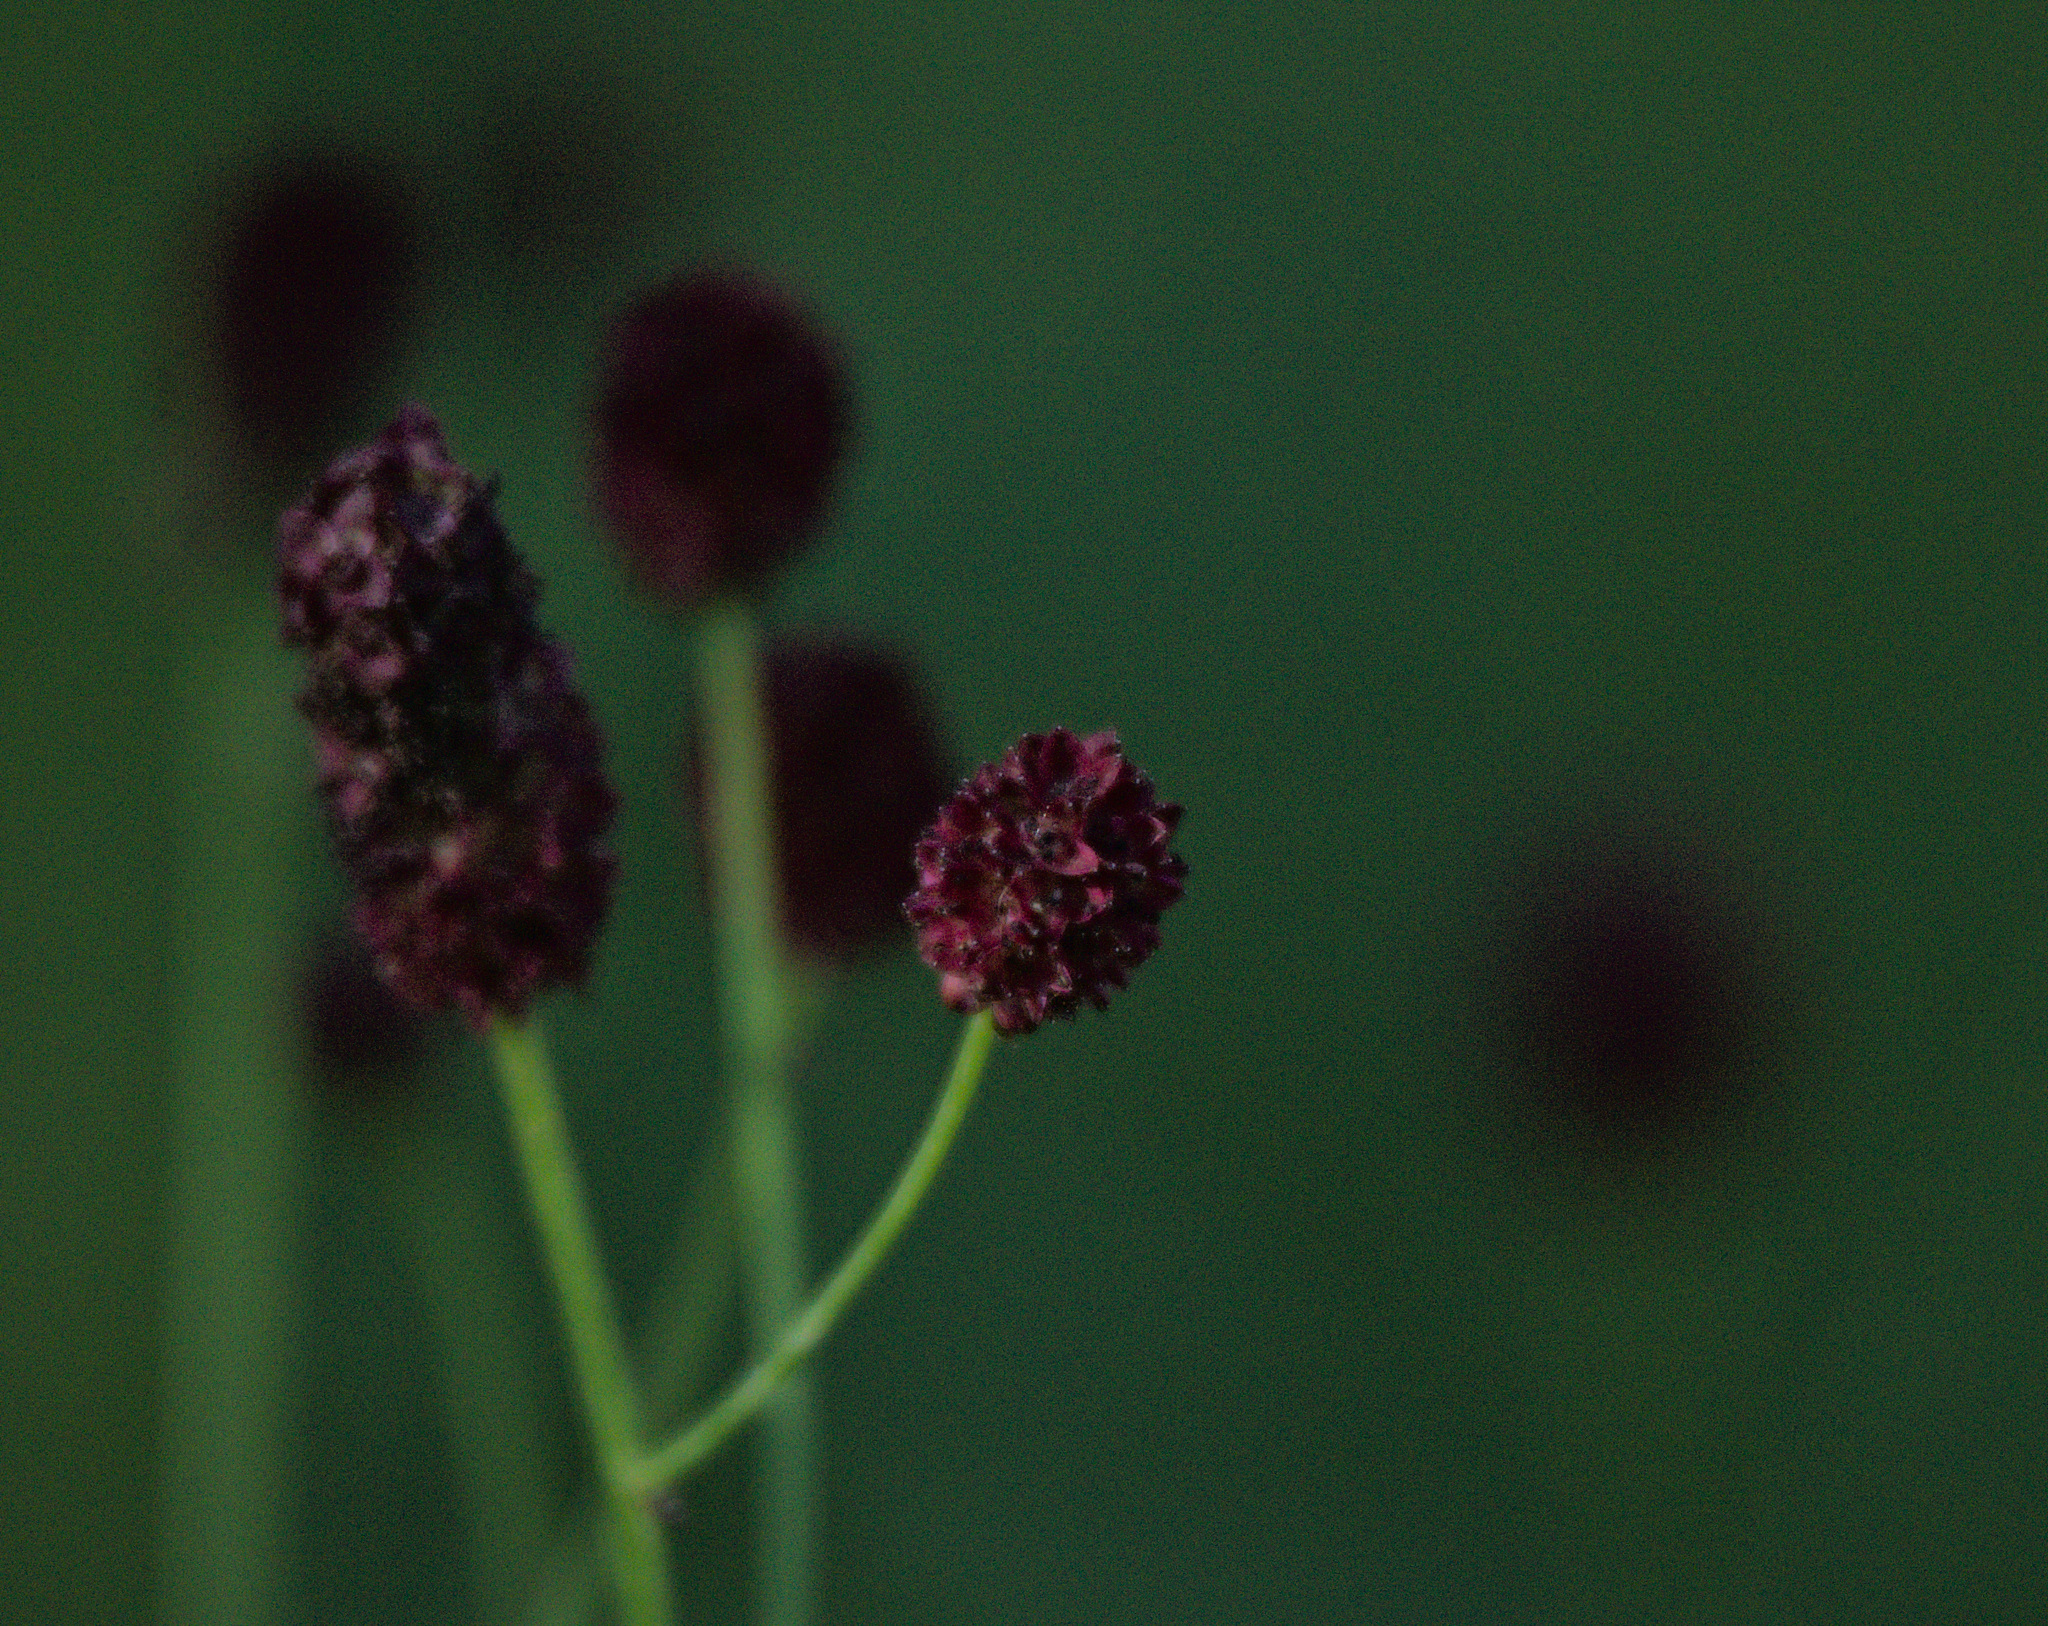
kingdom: Plantae
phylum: Tracheophyta
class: Magnoliopsida
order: Rosales
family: Rosaceae
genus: Sanguisorba
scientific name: Sanguisorba officinalis
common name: Great burnet
